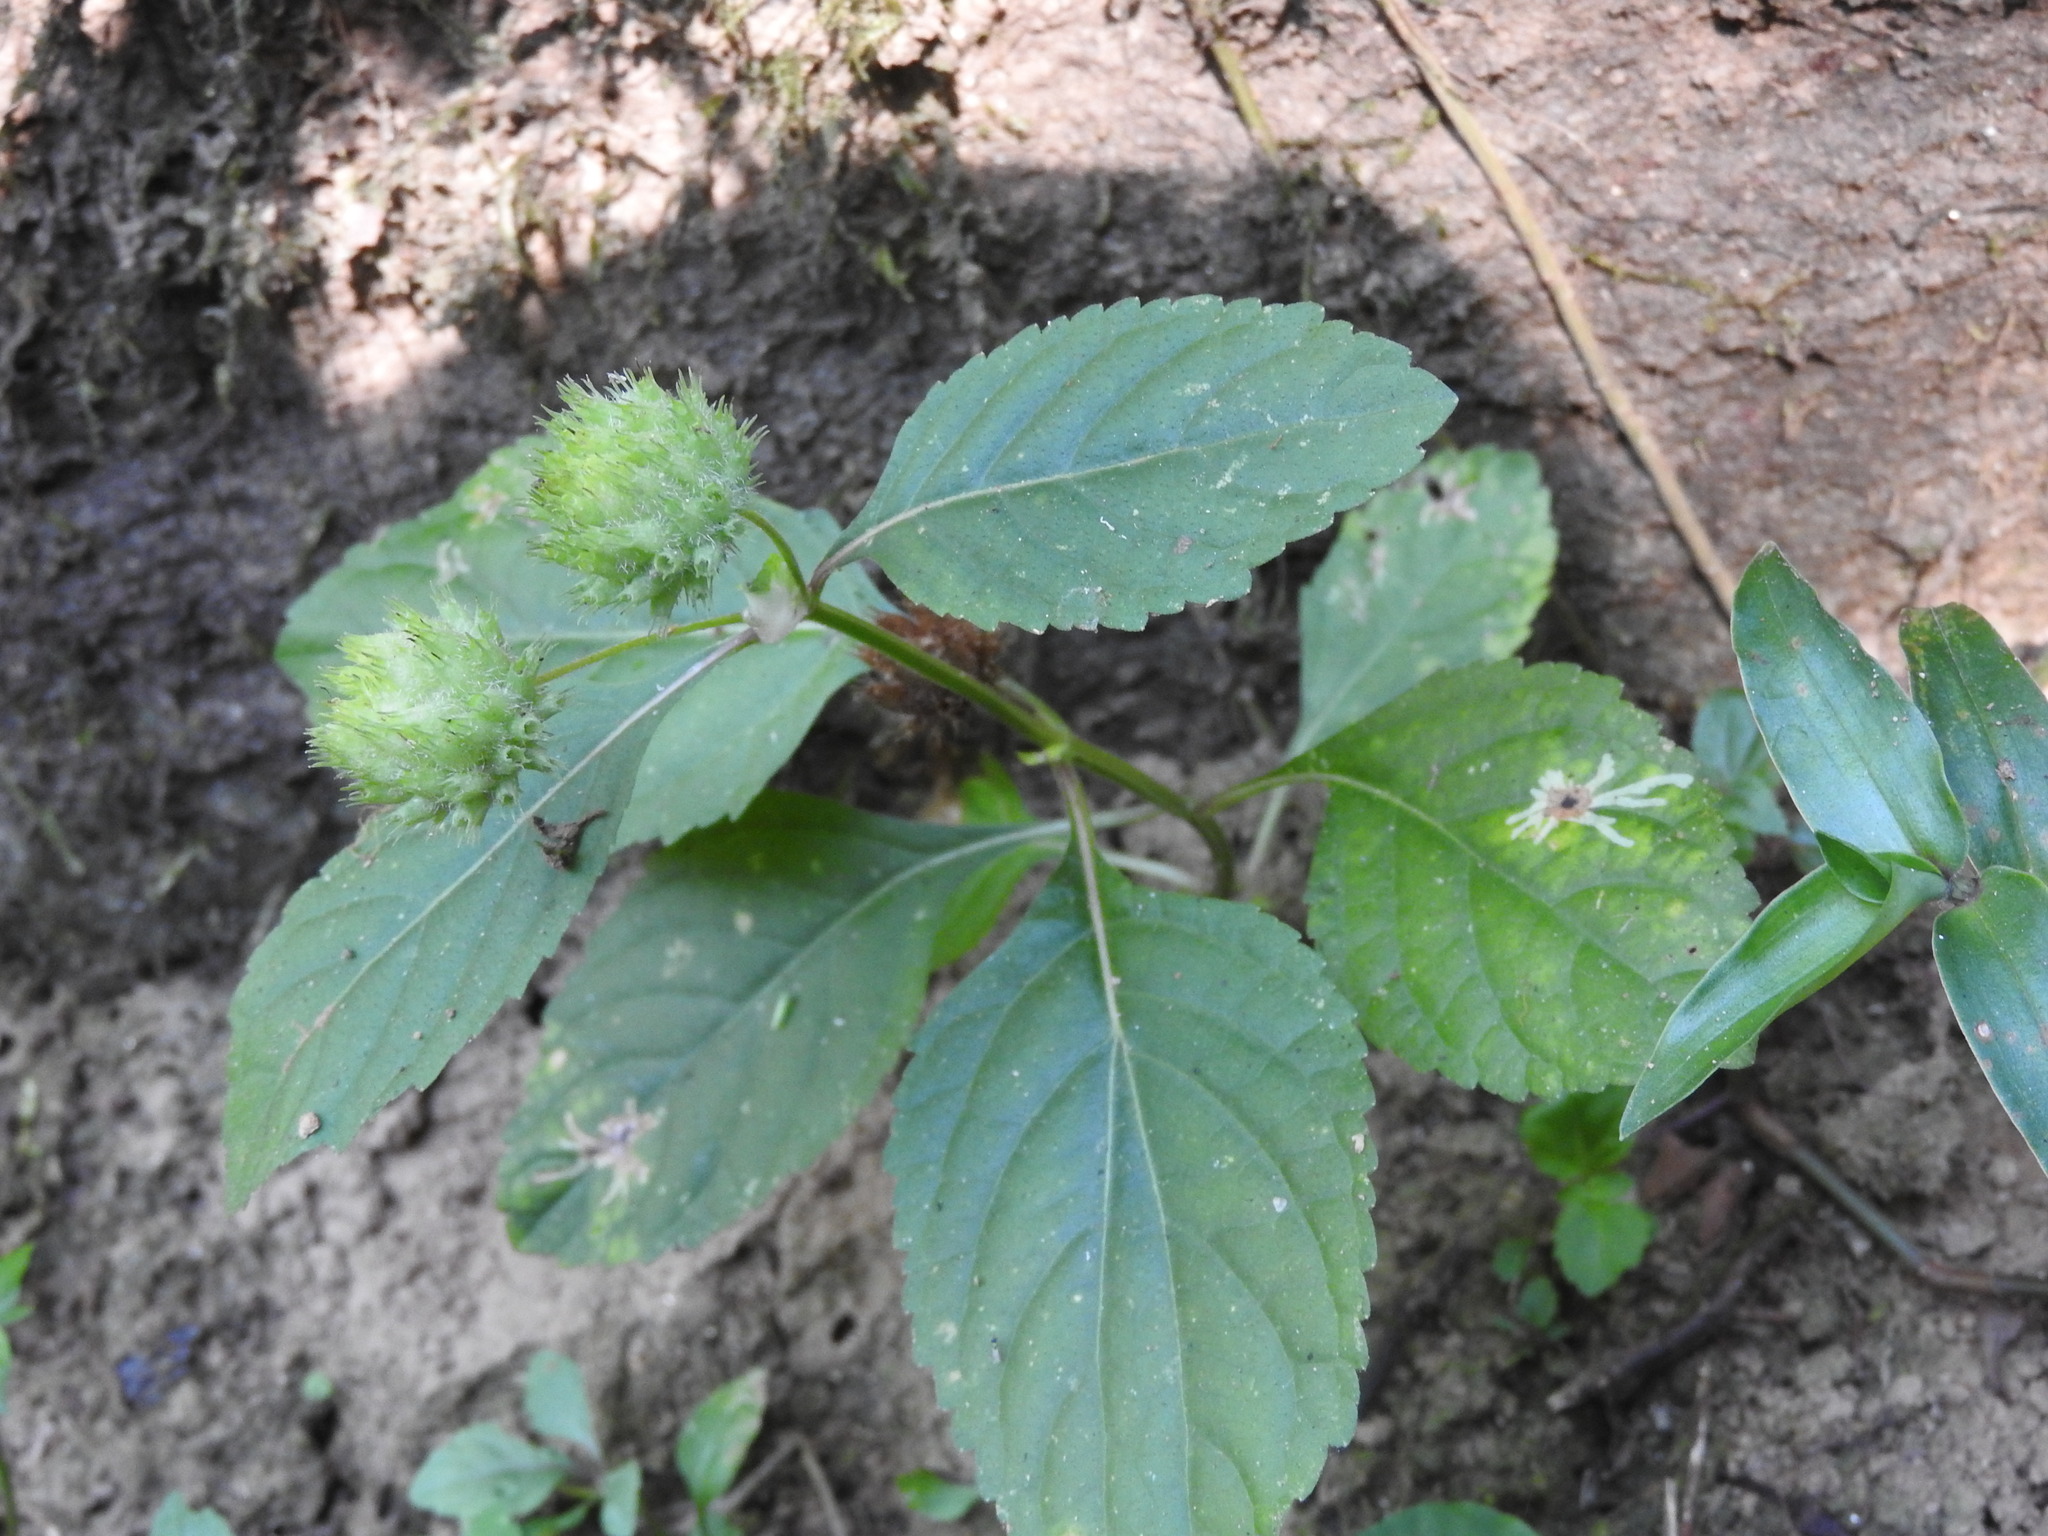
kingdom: Plantae
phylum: Tracheophyta
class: Magnoliopsida
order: Lamiales
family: Lamiaceae
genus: Hyptis
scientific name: Hyptis capitata
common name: False ironwort
